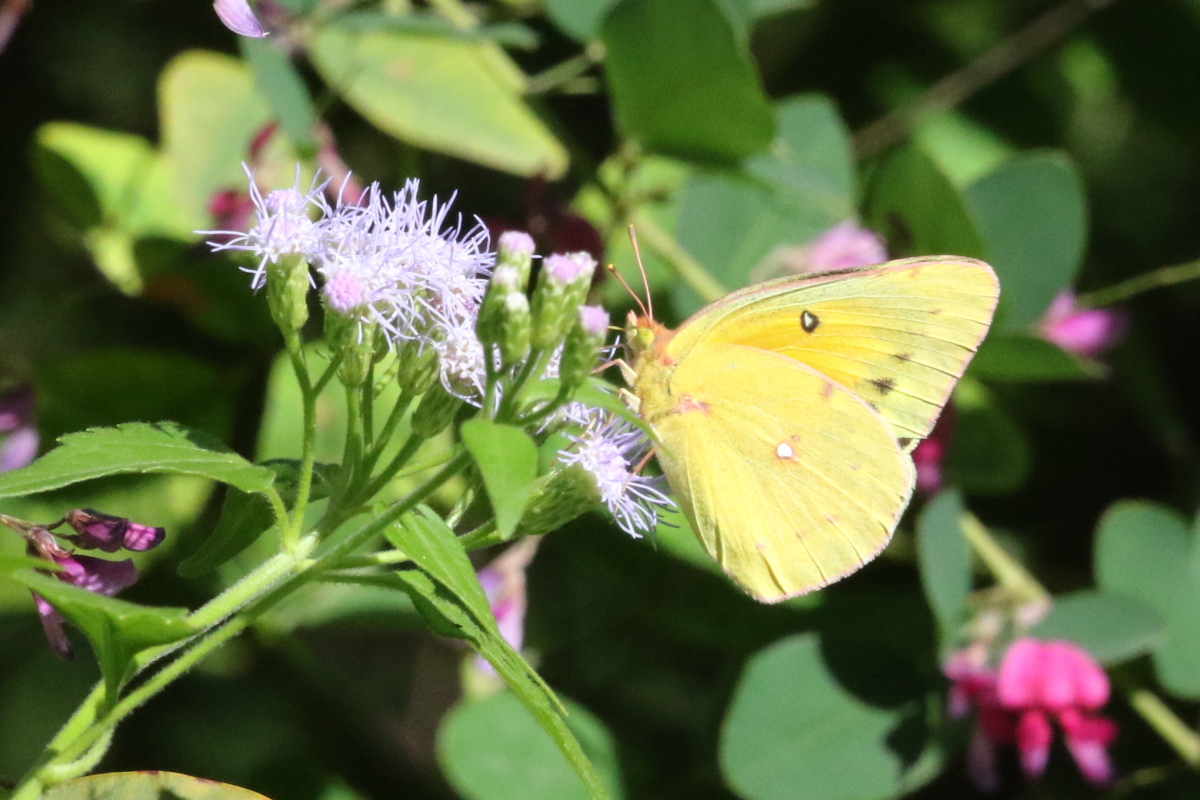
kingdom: Animalia
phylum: Arthropoda
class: Insecta
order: Lepidoptera
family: Pieridae
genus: Colias
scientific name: Colias eurytheme
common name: Alfalfa butterfly
